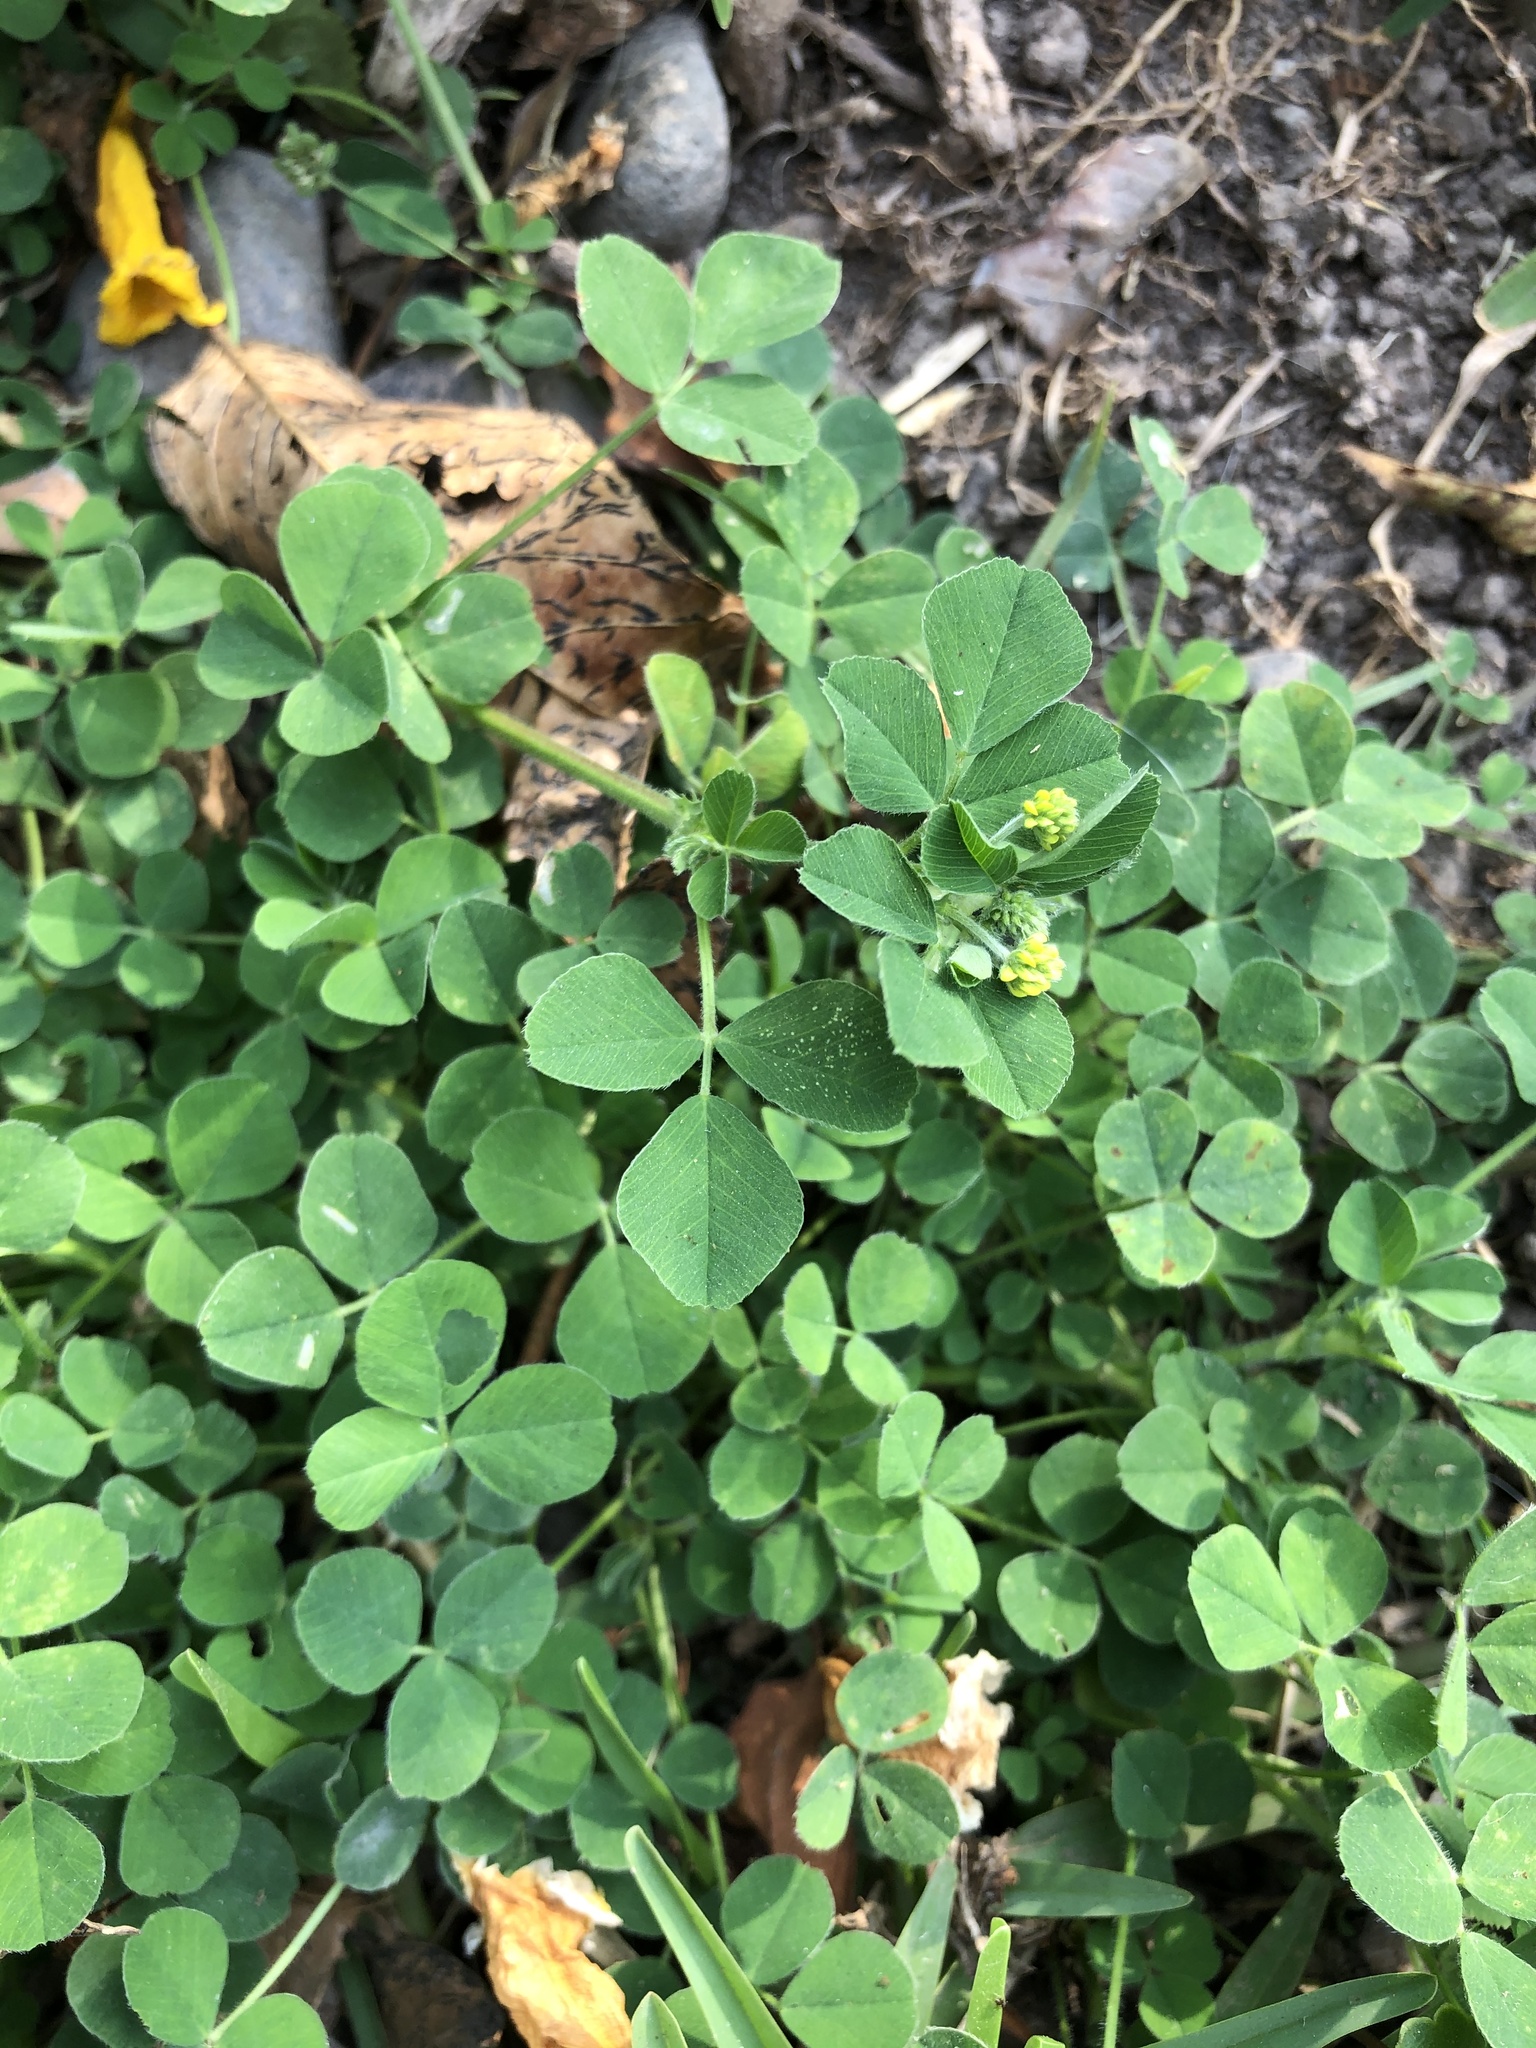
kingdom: Plantae
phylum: Tracheophyta
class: Magnoliopsida
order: Fabales
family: Fabaceae
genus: Medicago
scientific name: Medicago lupulina
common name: Black medick
